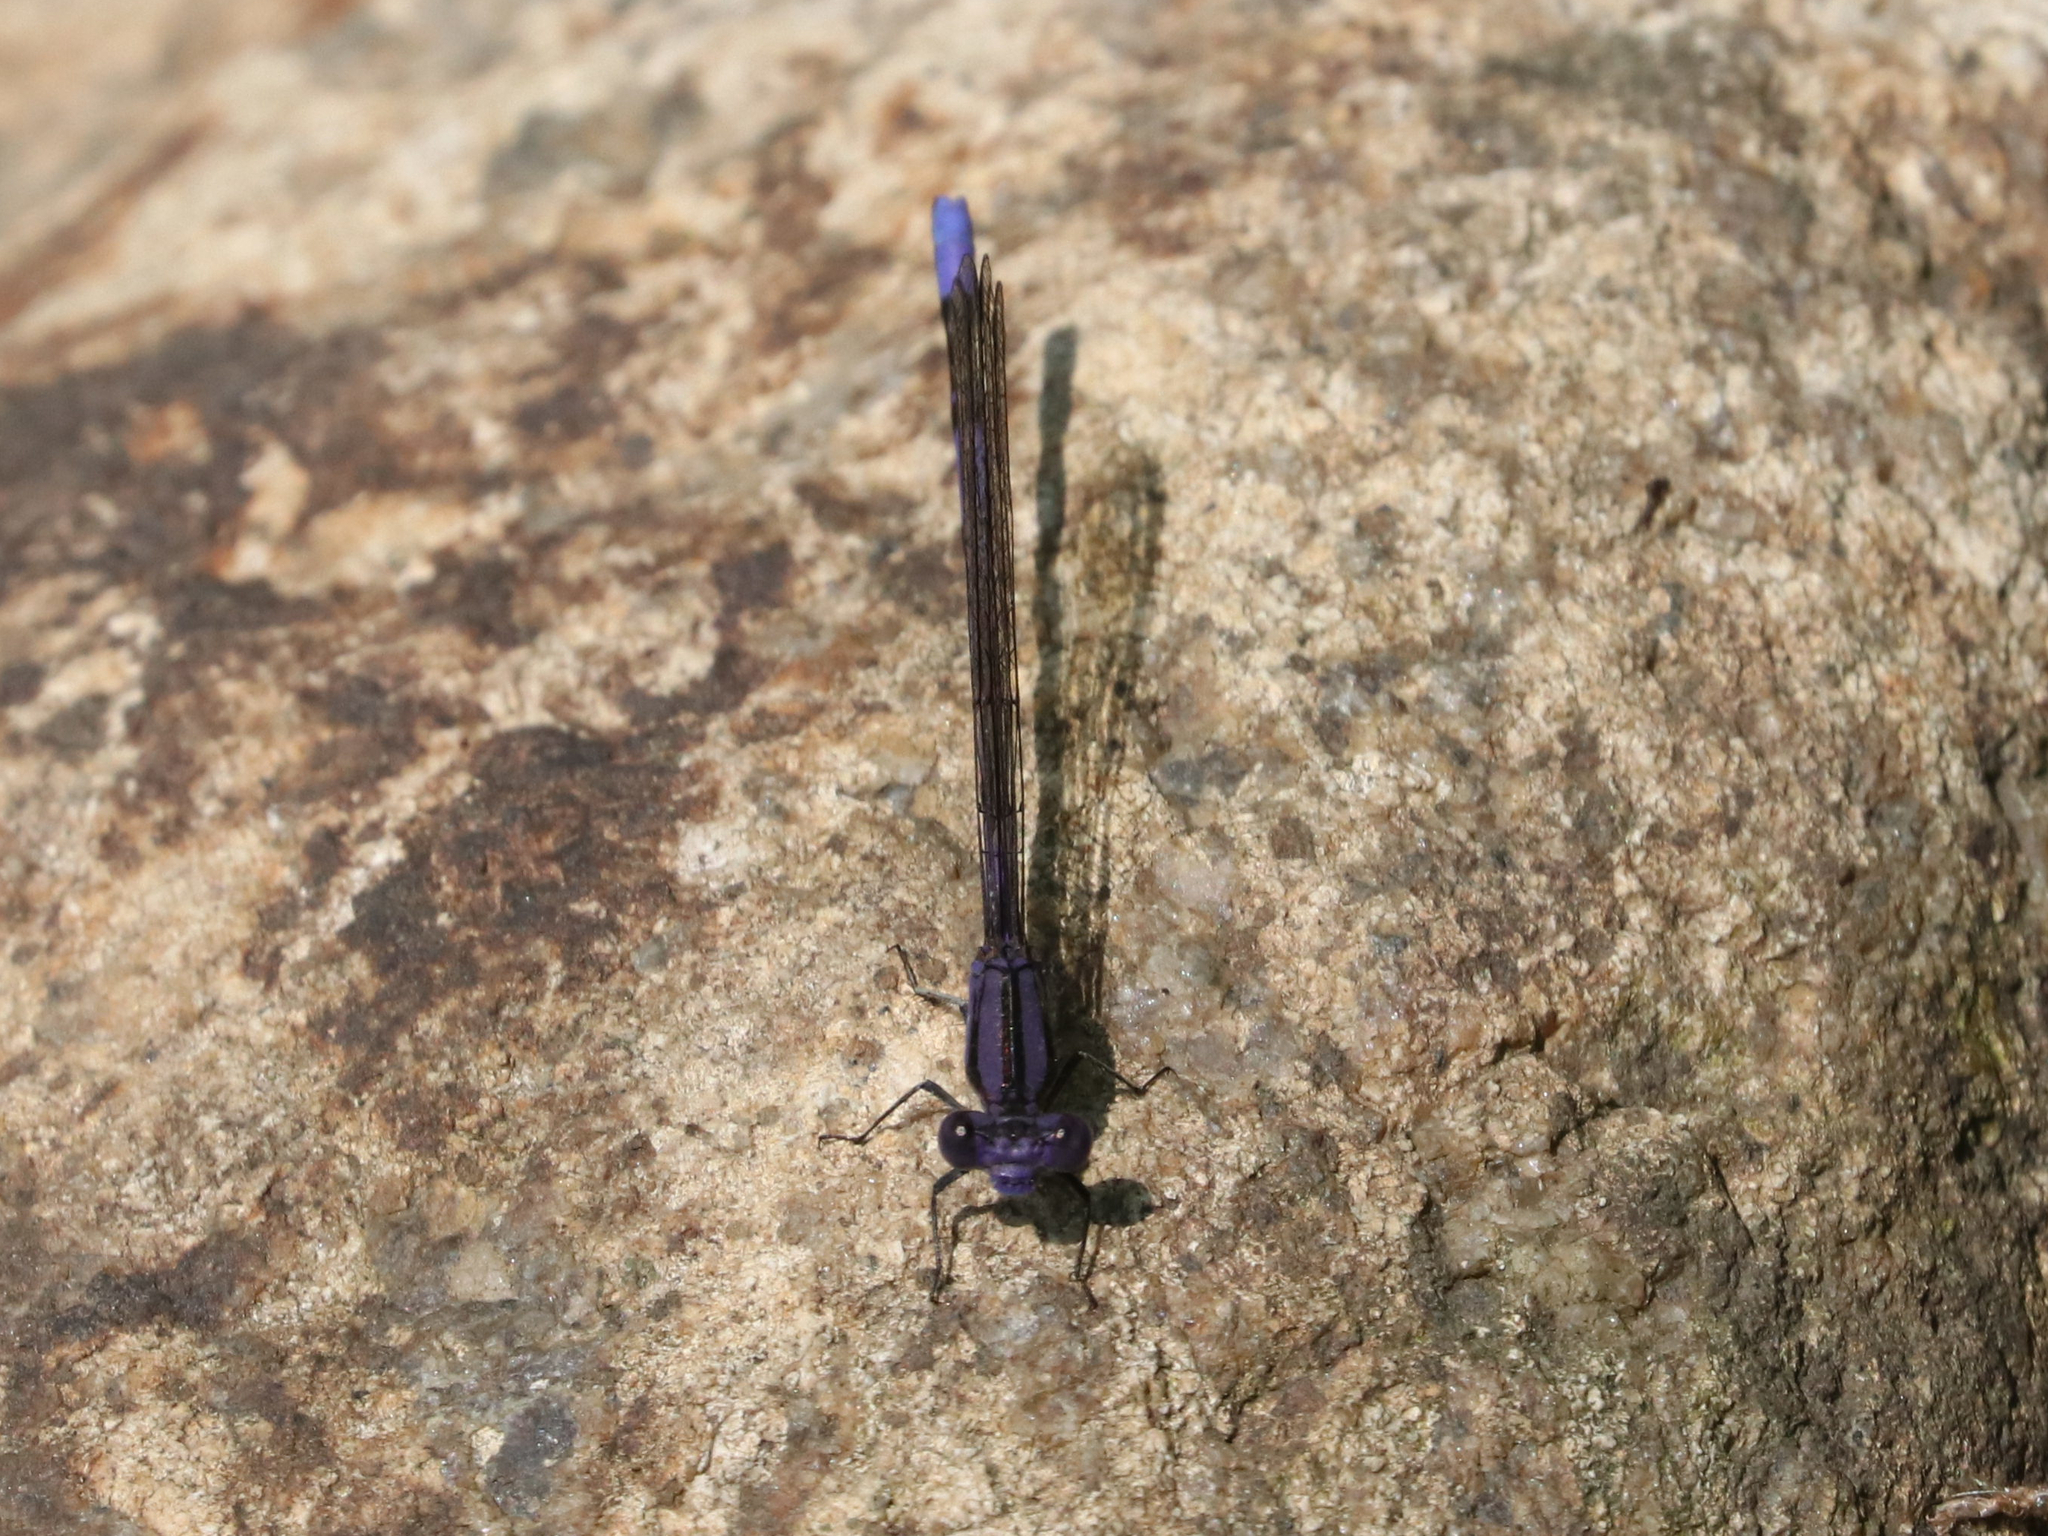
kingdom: Animalia
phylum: Arthropoda
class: Insecta
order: Odonata
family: Coenagrionidae
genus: Argia
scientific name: Argia fumipennis
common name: Variable dancer
